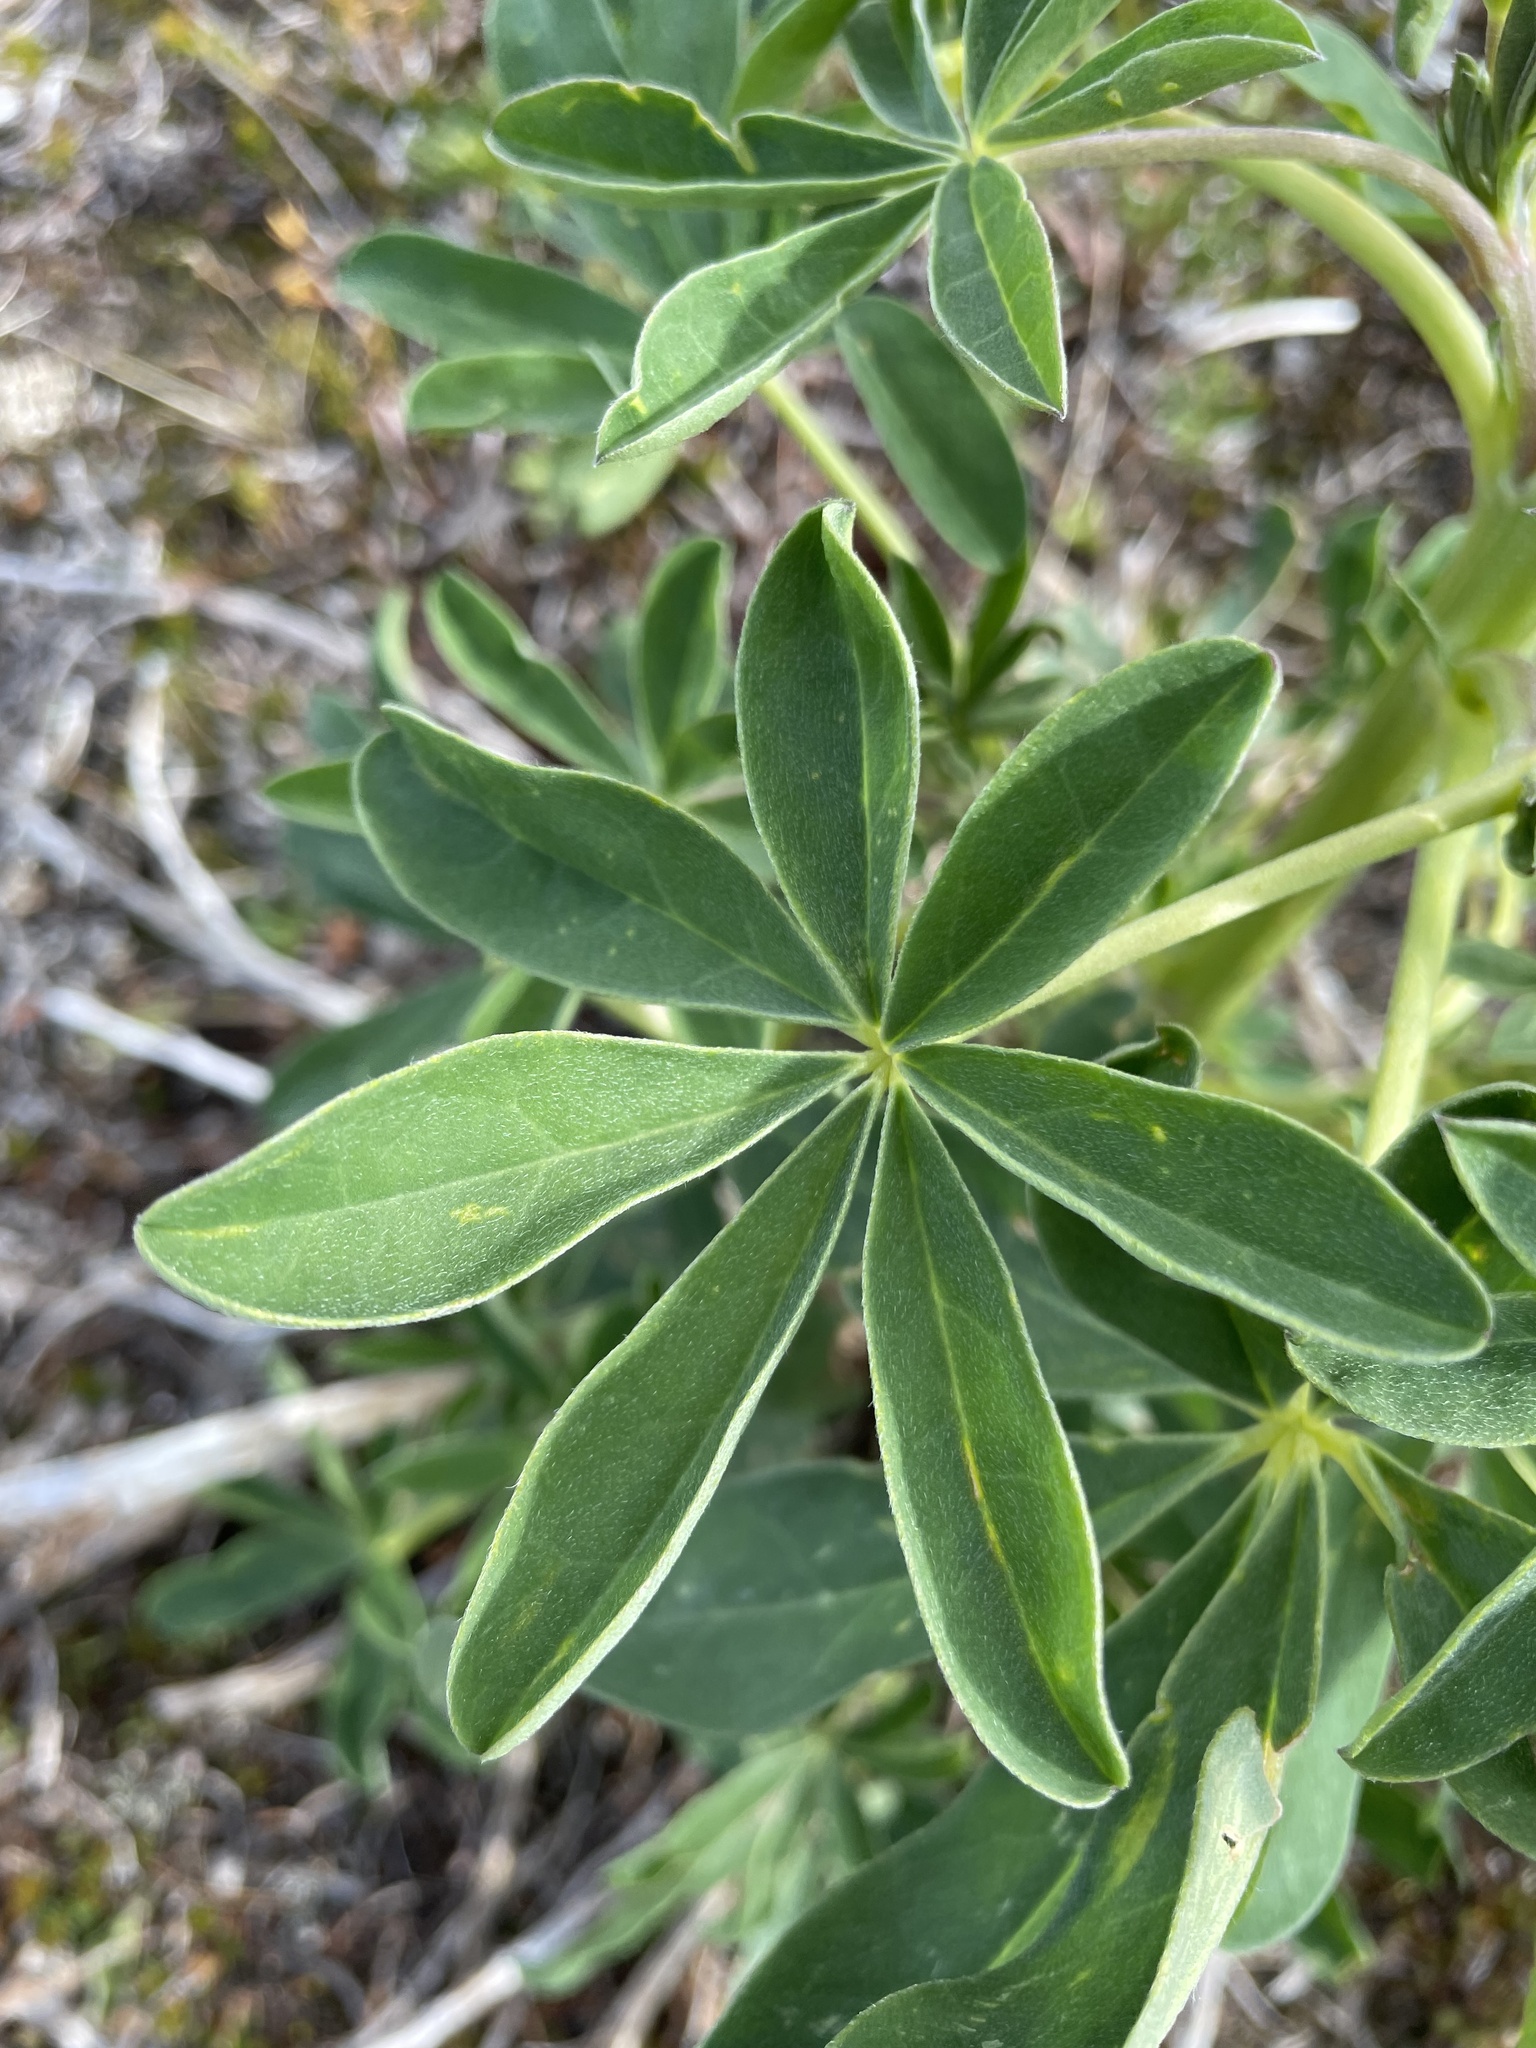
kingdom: Plantae
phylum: Tracheophyta
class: Magnoliopsida
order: Fabales
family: Fabaceae
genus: Lupinus
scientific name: Lupinus nootkatensis
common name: Nootka lupine
